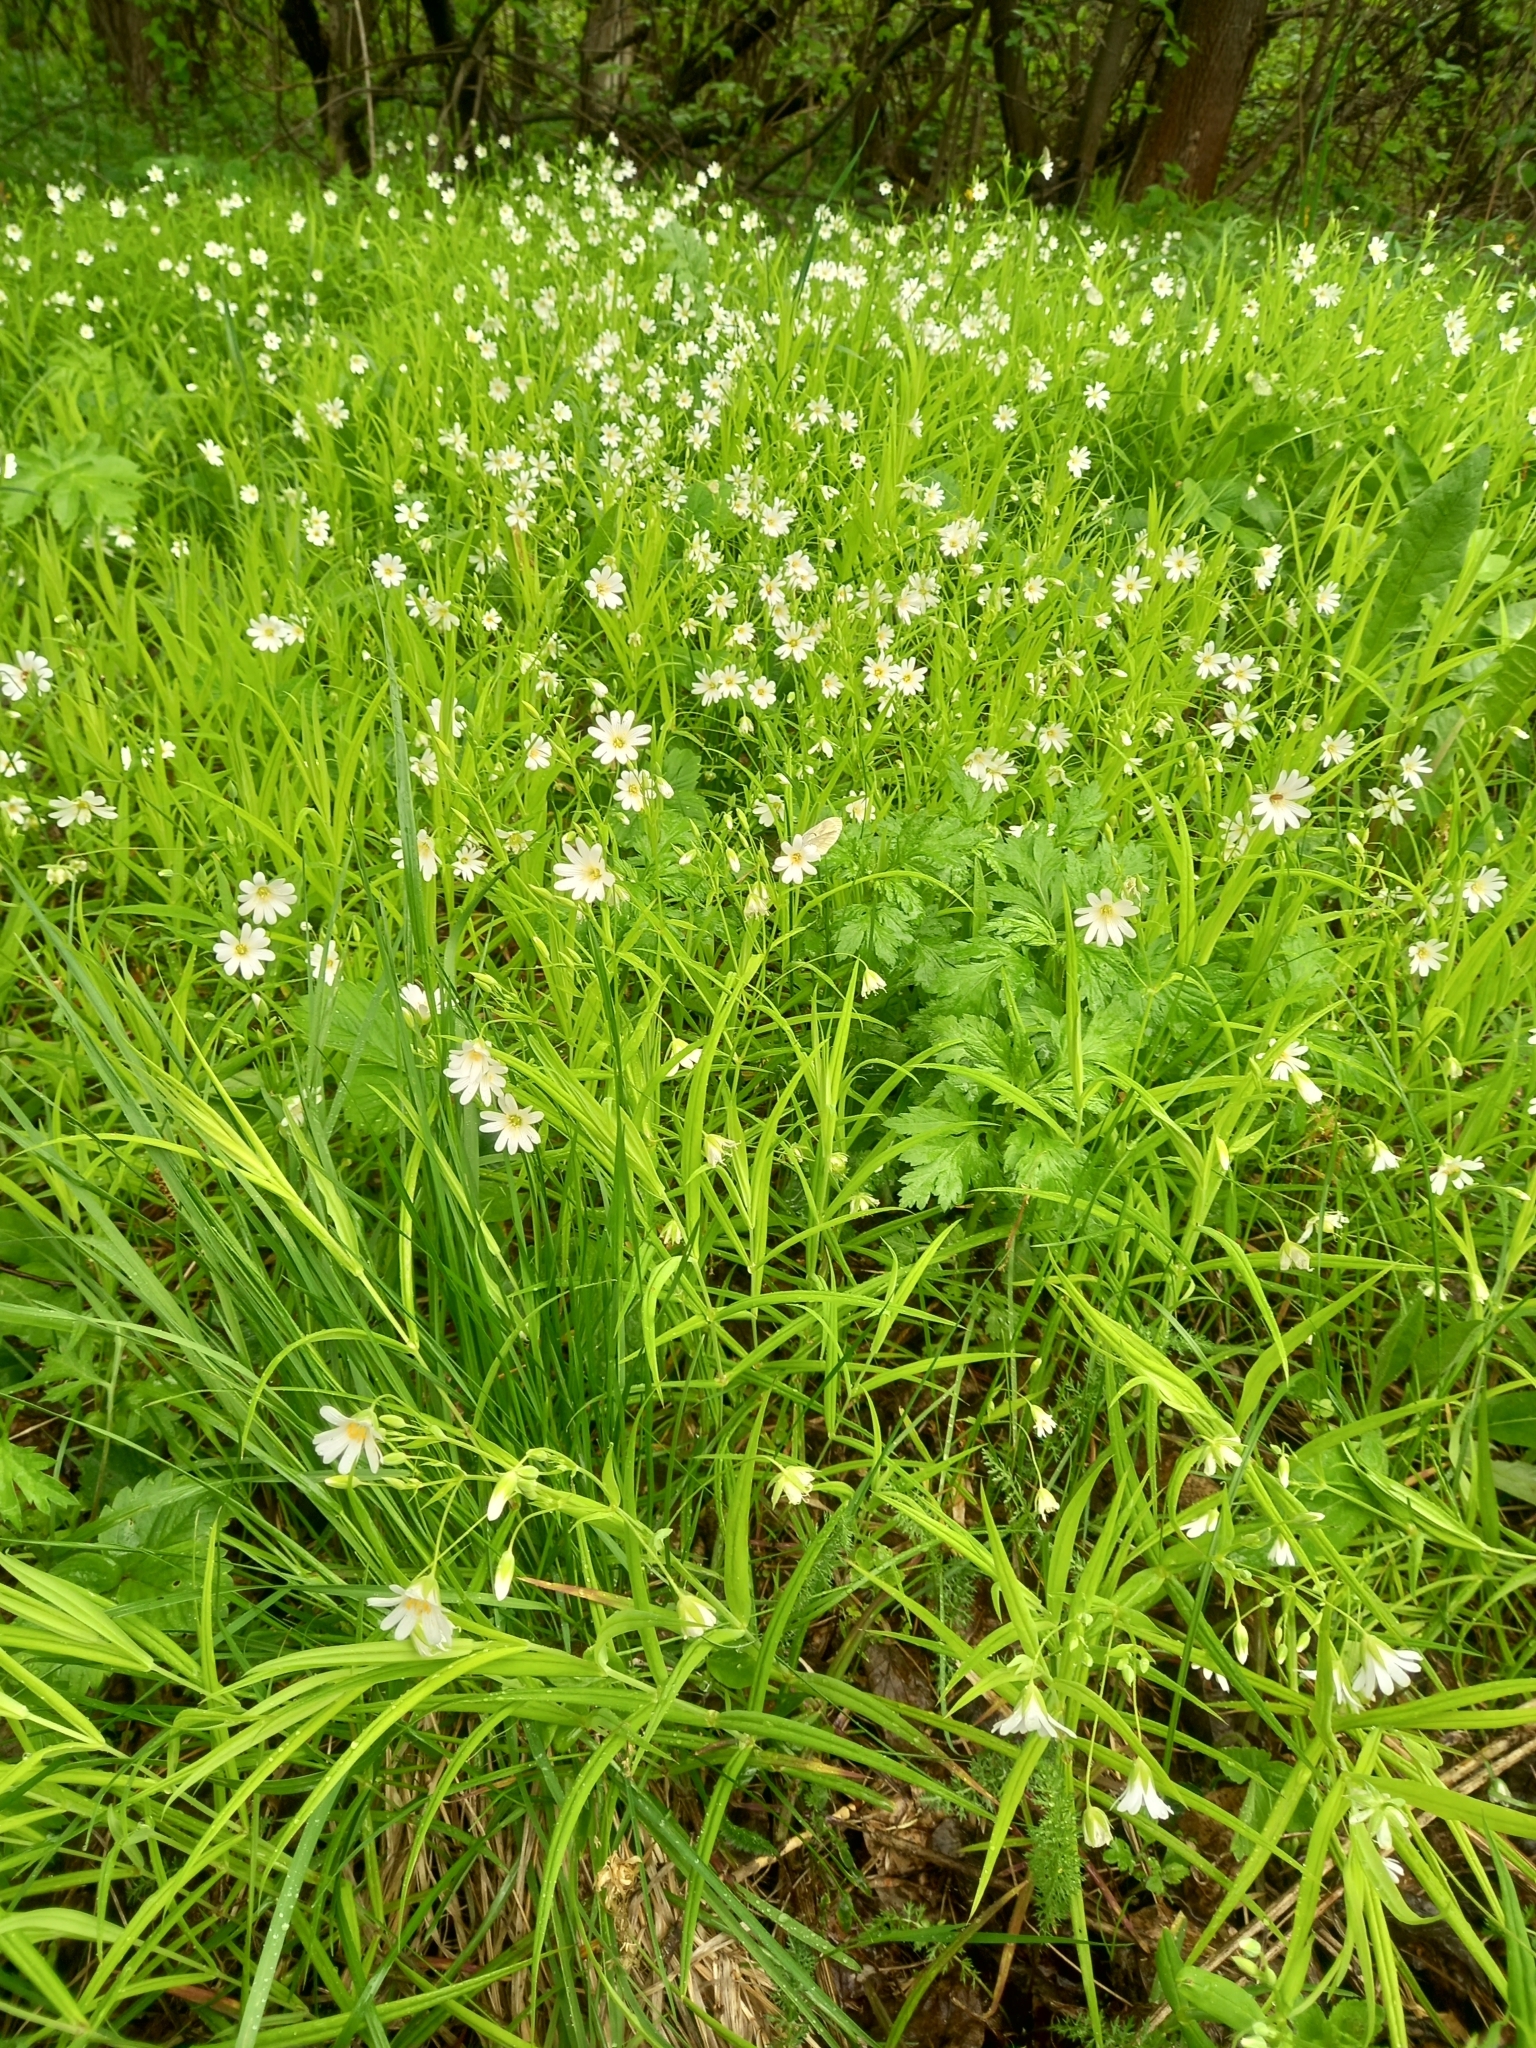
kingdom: Plantae
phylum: Tracheophyta
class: Magnoliopsida
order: Caryophyllales
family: Caryophyllaceae
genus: Rabelera
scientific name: Rabelera holostea
